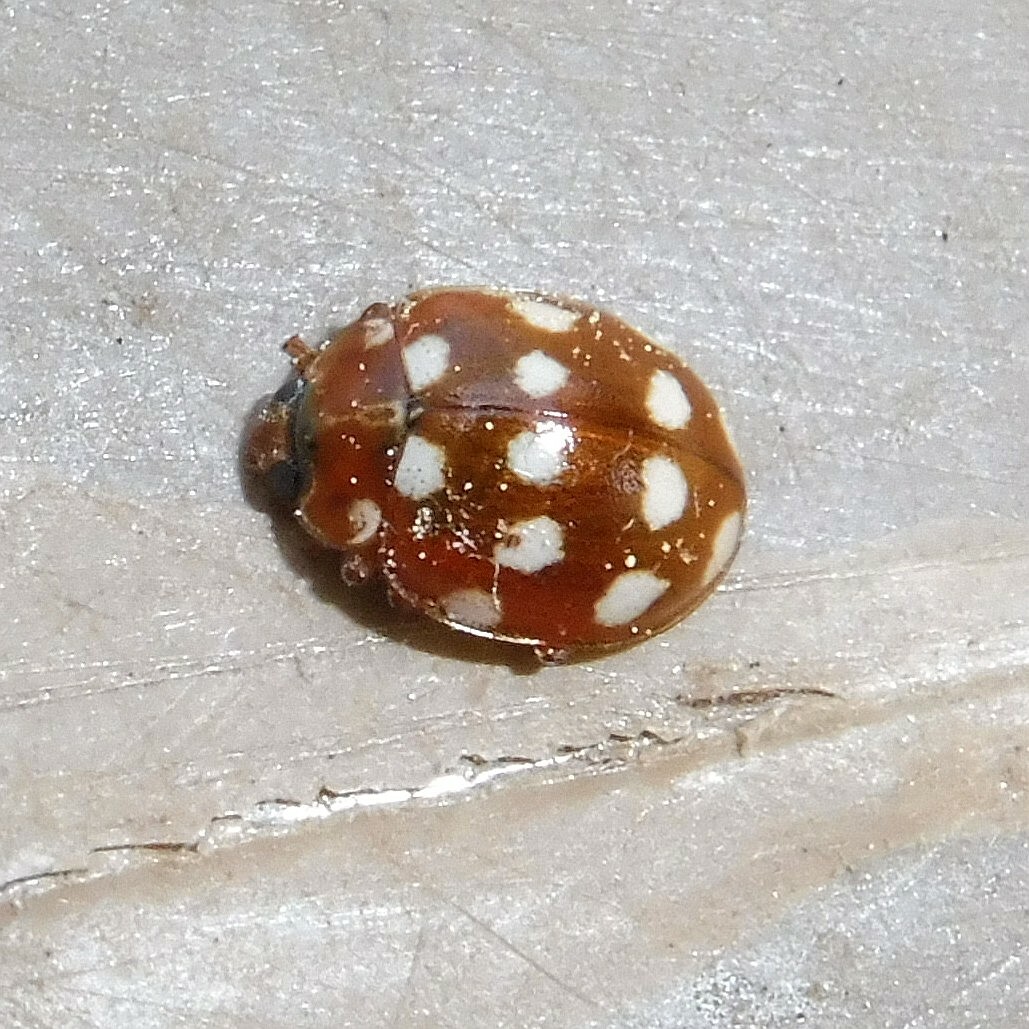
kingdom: Animalia
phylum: Arthropoda
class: Insecta
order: Coleoptera
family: Coccinellidae
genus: Calvia
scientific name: Calvia quatuordecimguttata
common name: Cream-spot ladybird
